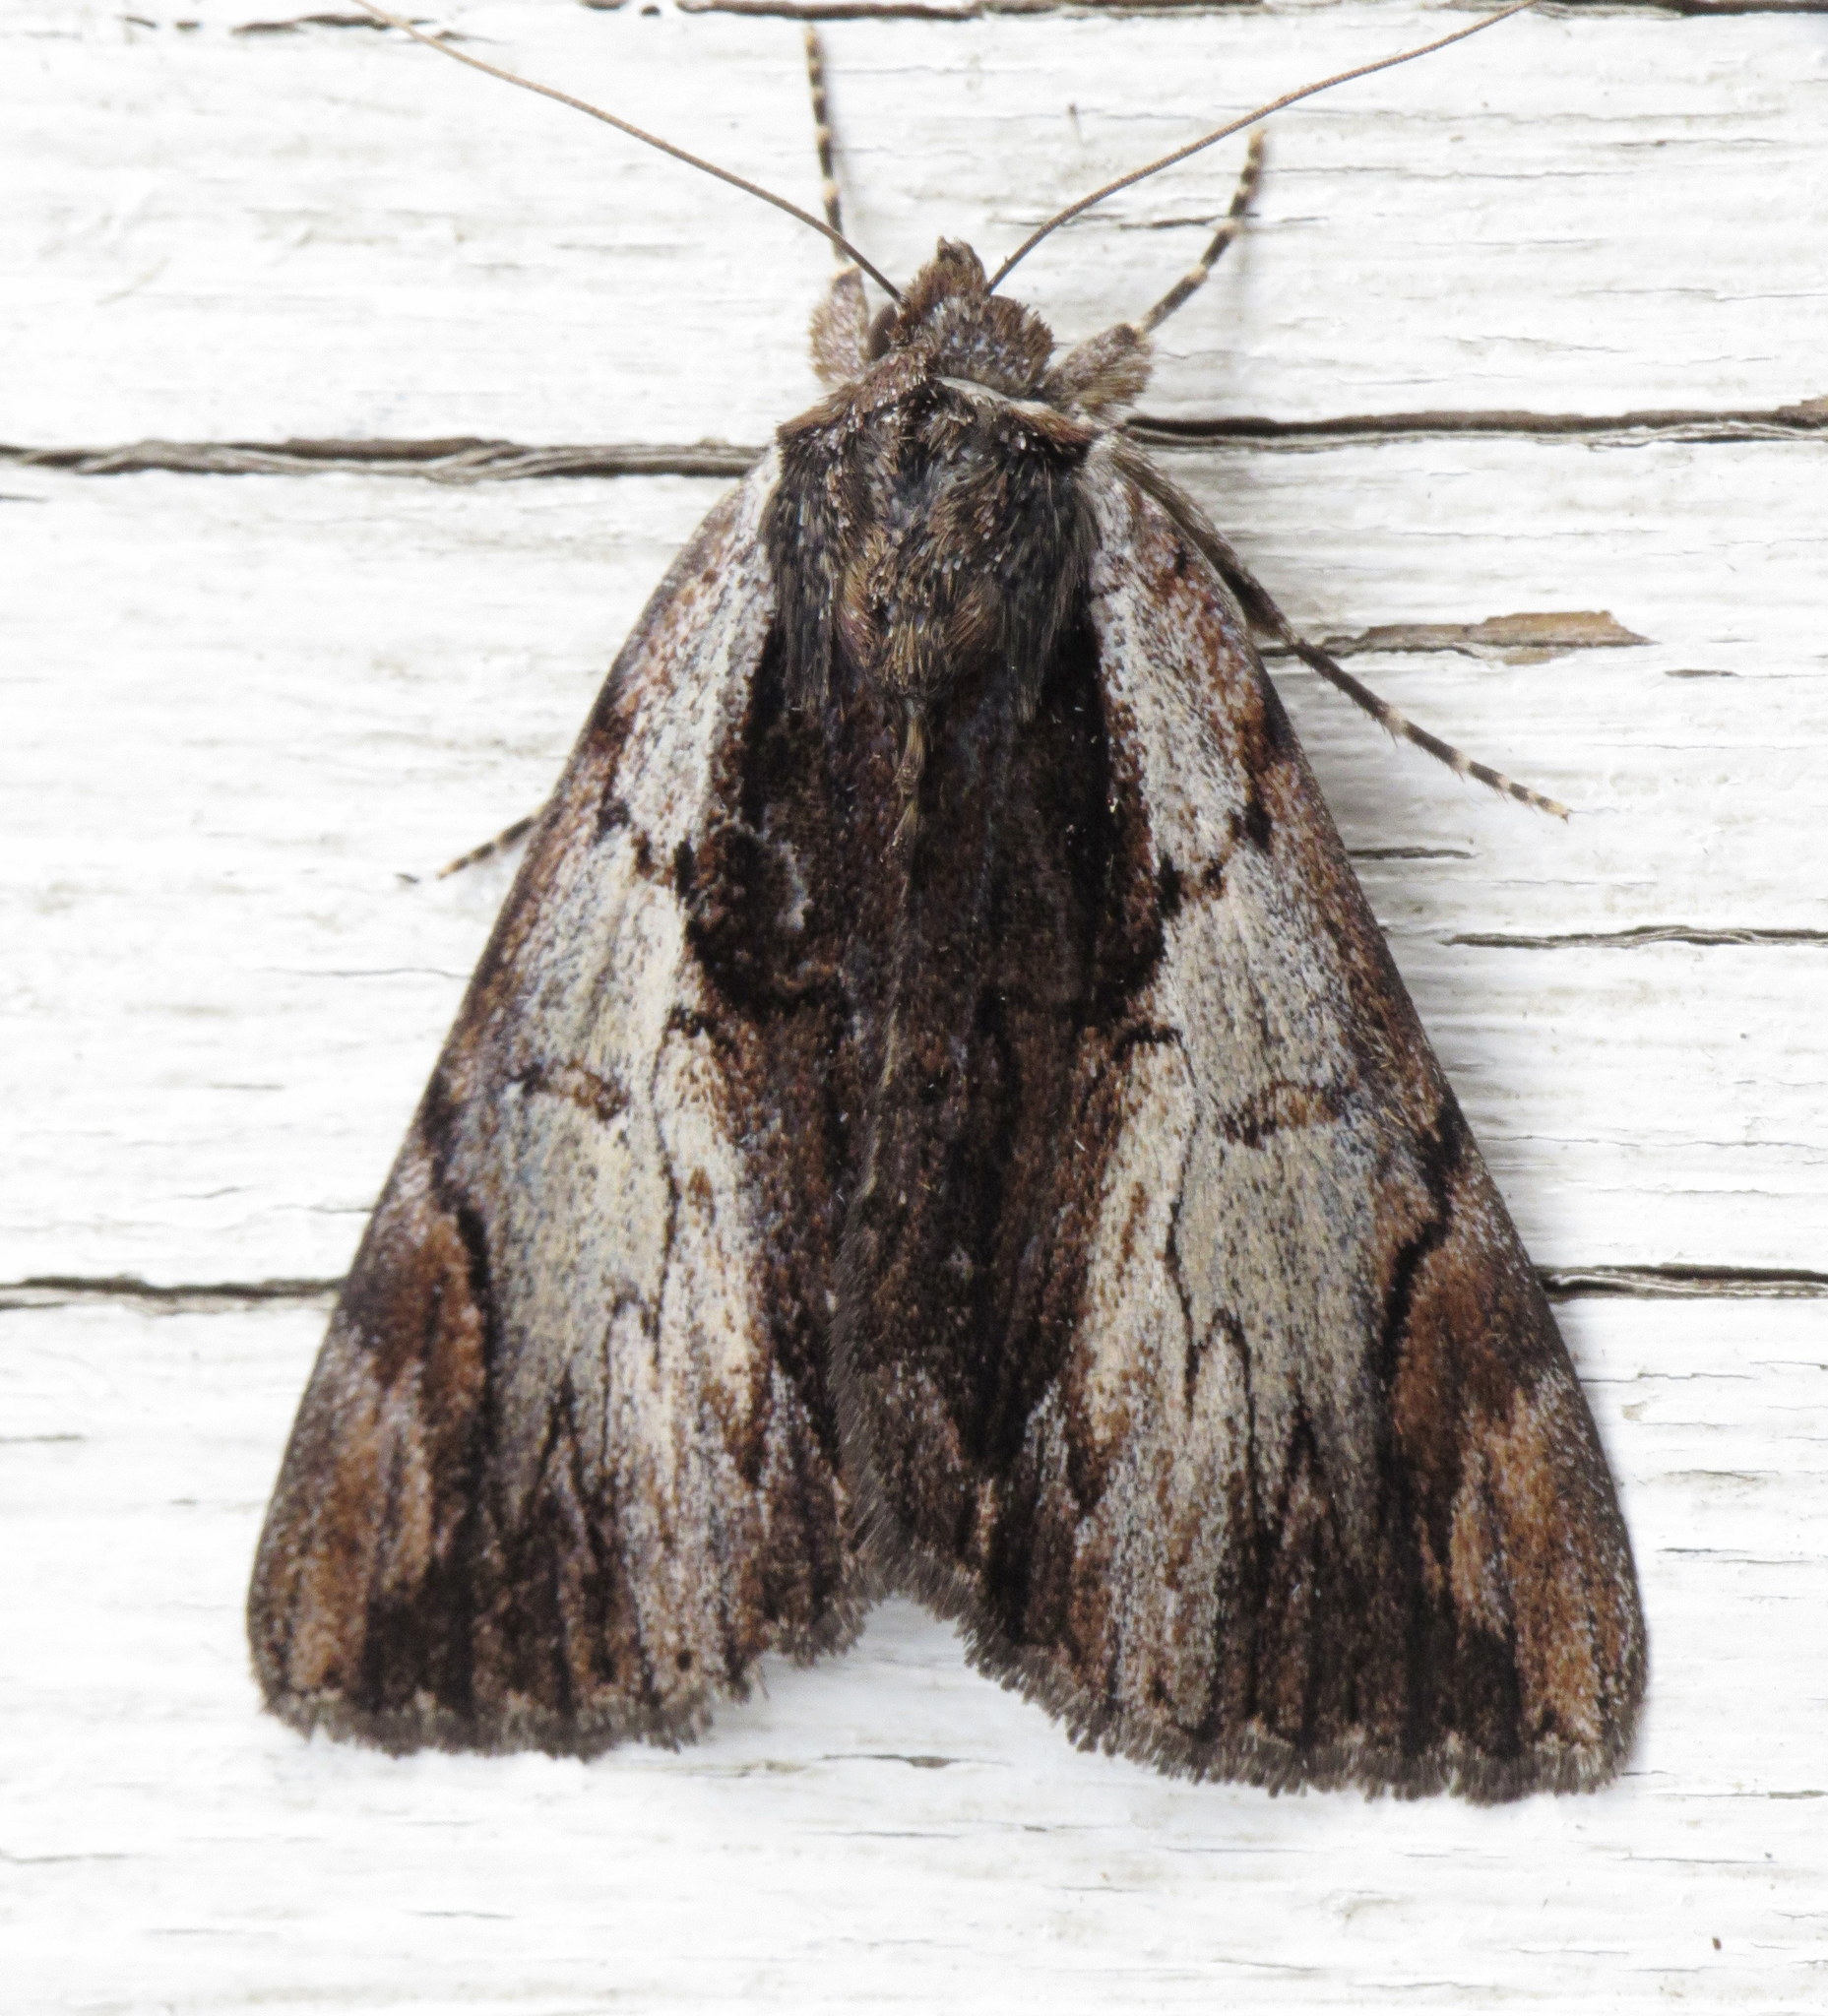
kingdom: Animalia
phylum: Arthropoda
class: Insecta
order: Lepidoptera
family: Erebidae
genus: Catocala
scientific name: Catocala ultronia
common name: Ultronia underwing
